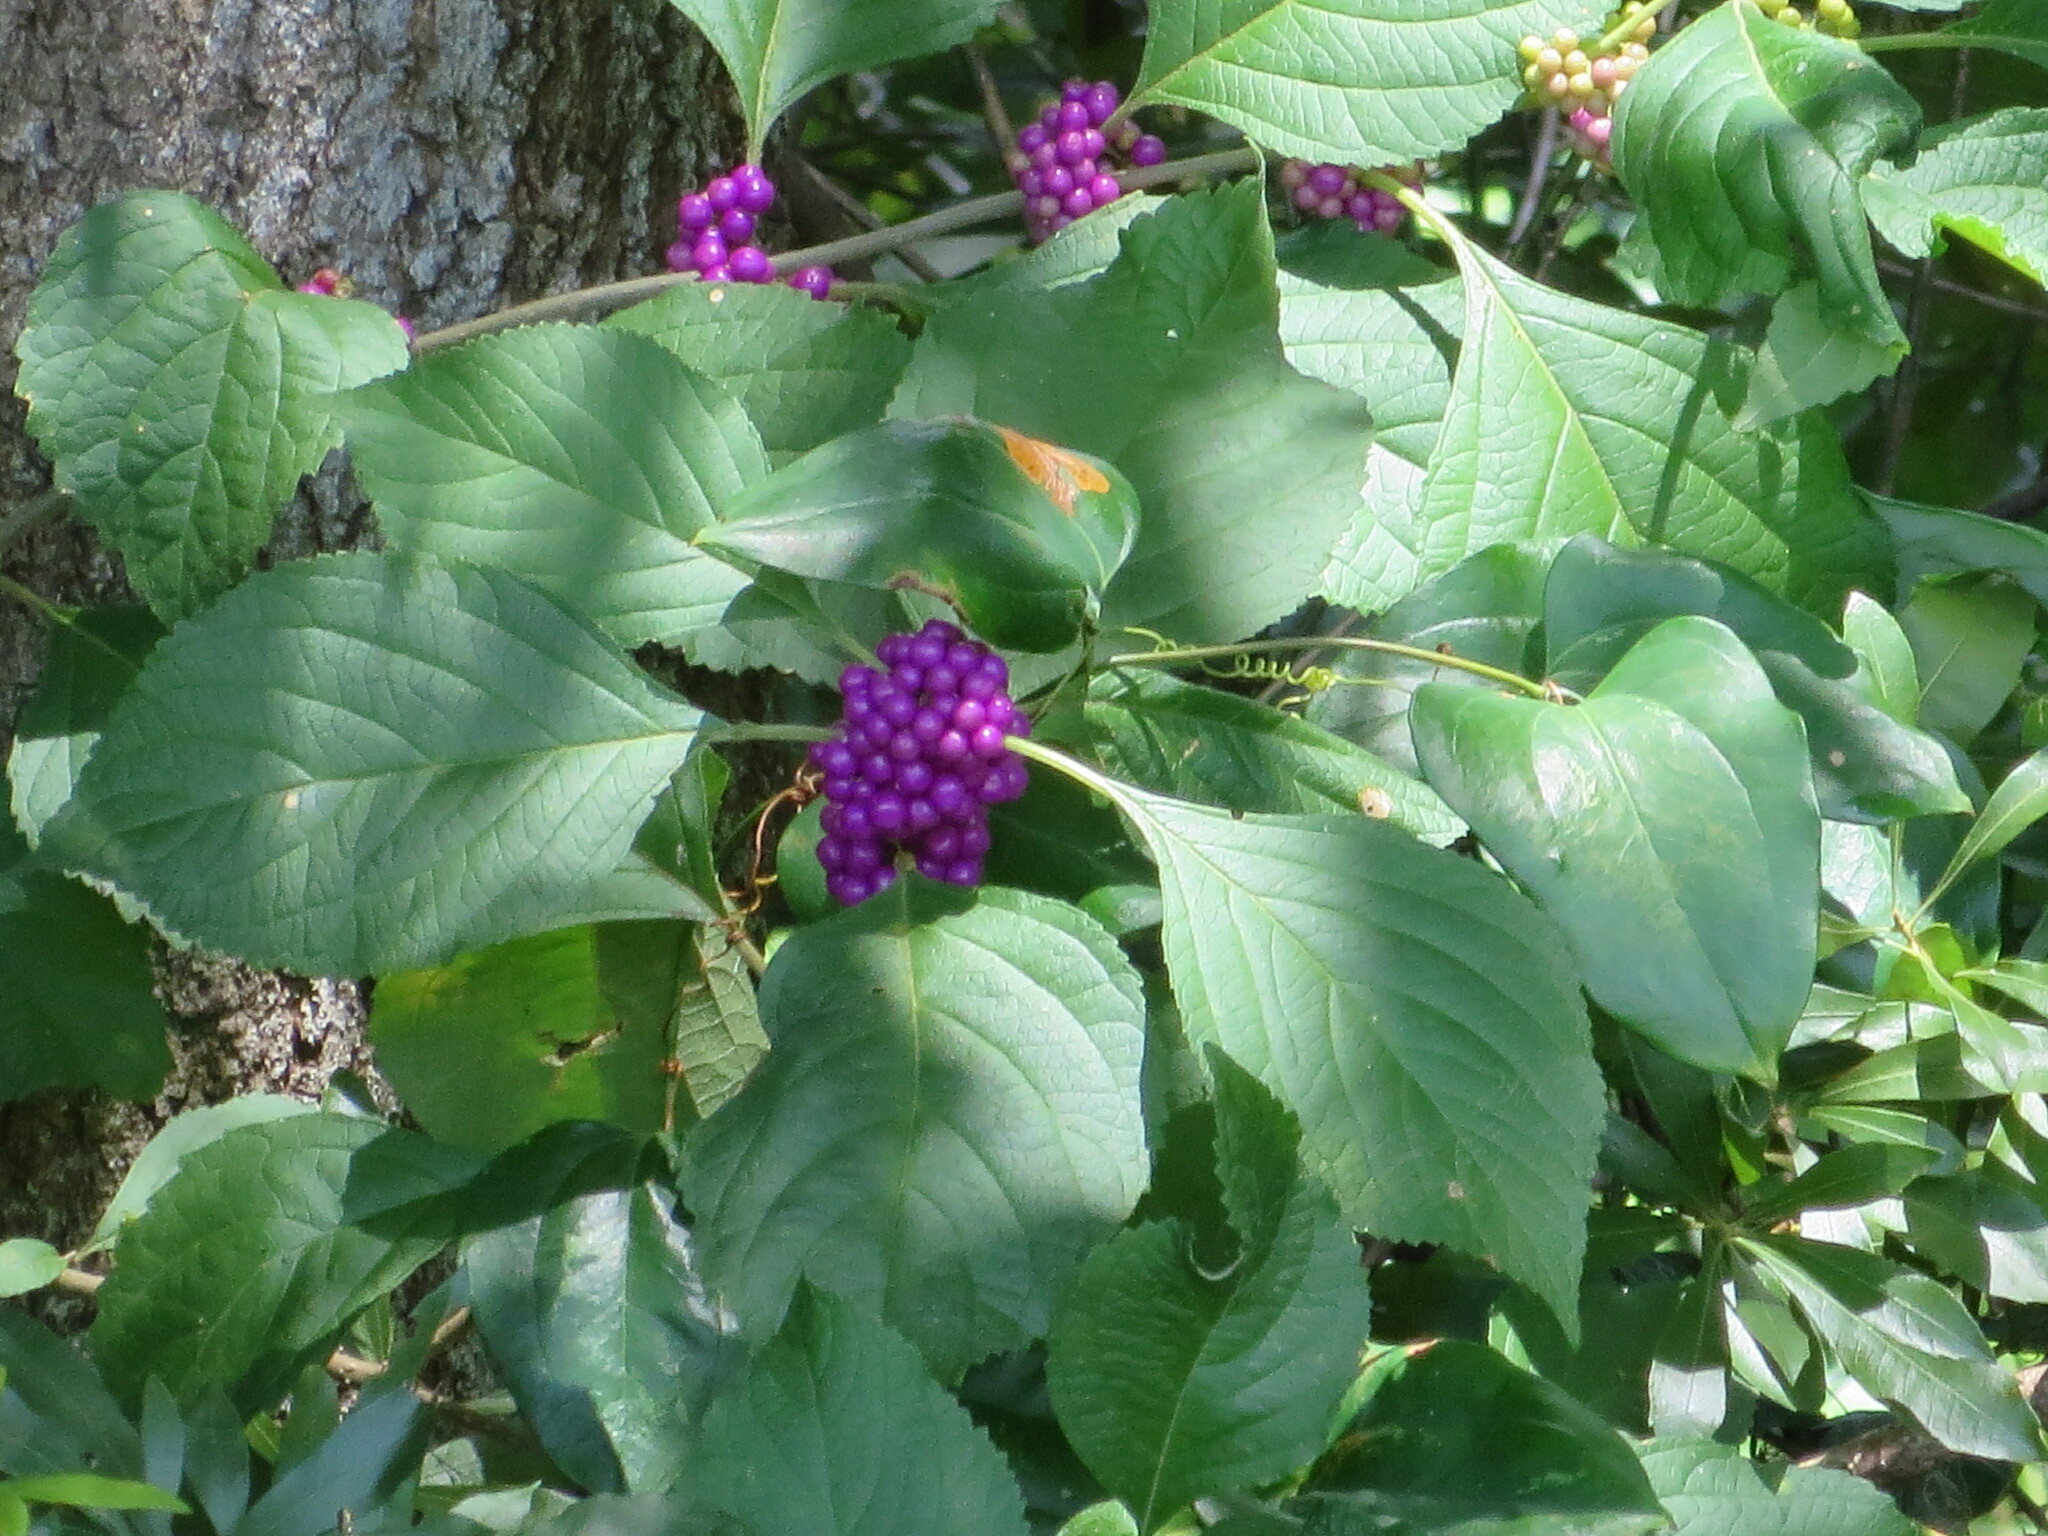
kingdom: Plantae
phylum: Tracheophyta
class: Magnoliopsida
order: Lamiales
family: Lamiaceae
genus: Callicarpa
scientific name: Callicarpa americana
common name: American beautyberry
